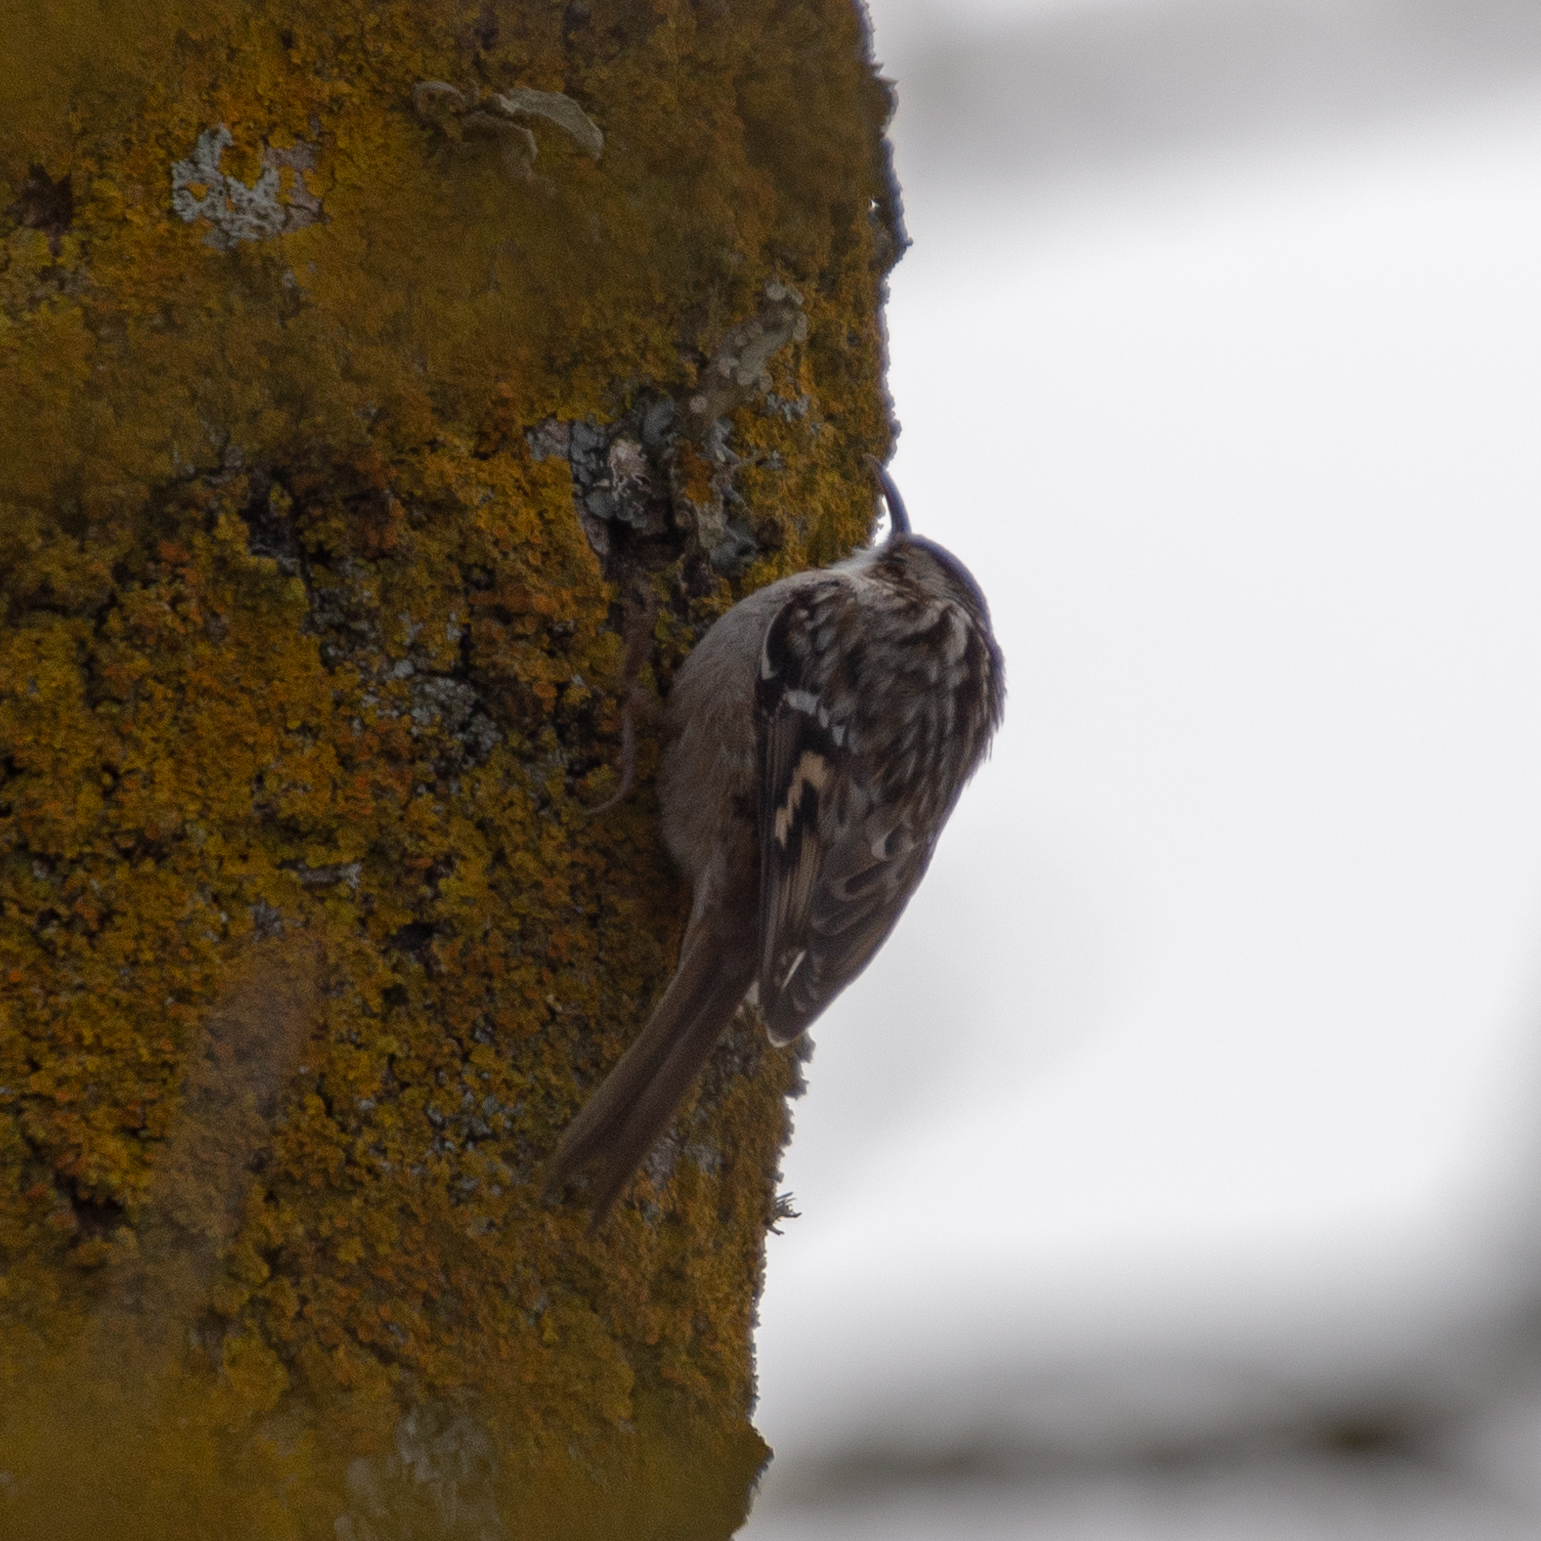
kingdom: Animalia
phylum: Chordata
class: Aves
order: Passeriformes
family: Certhiidae
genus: Certhia
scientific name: Certhia brachydactyla
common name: Short-toed treecreeper
